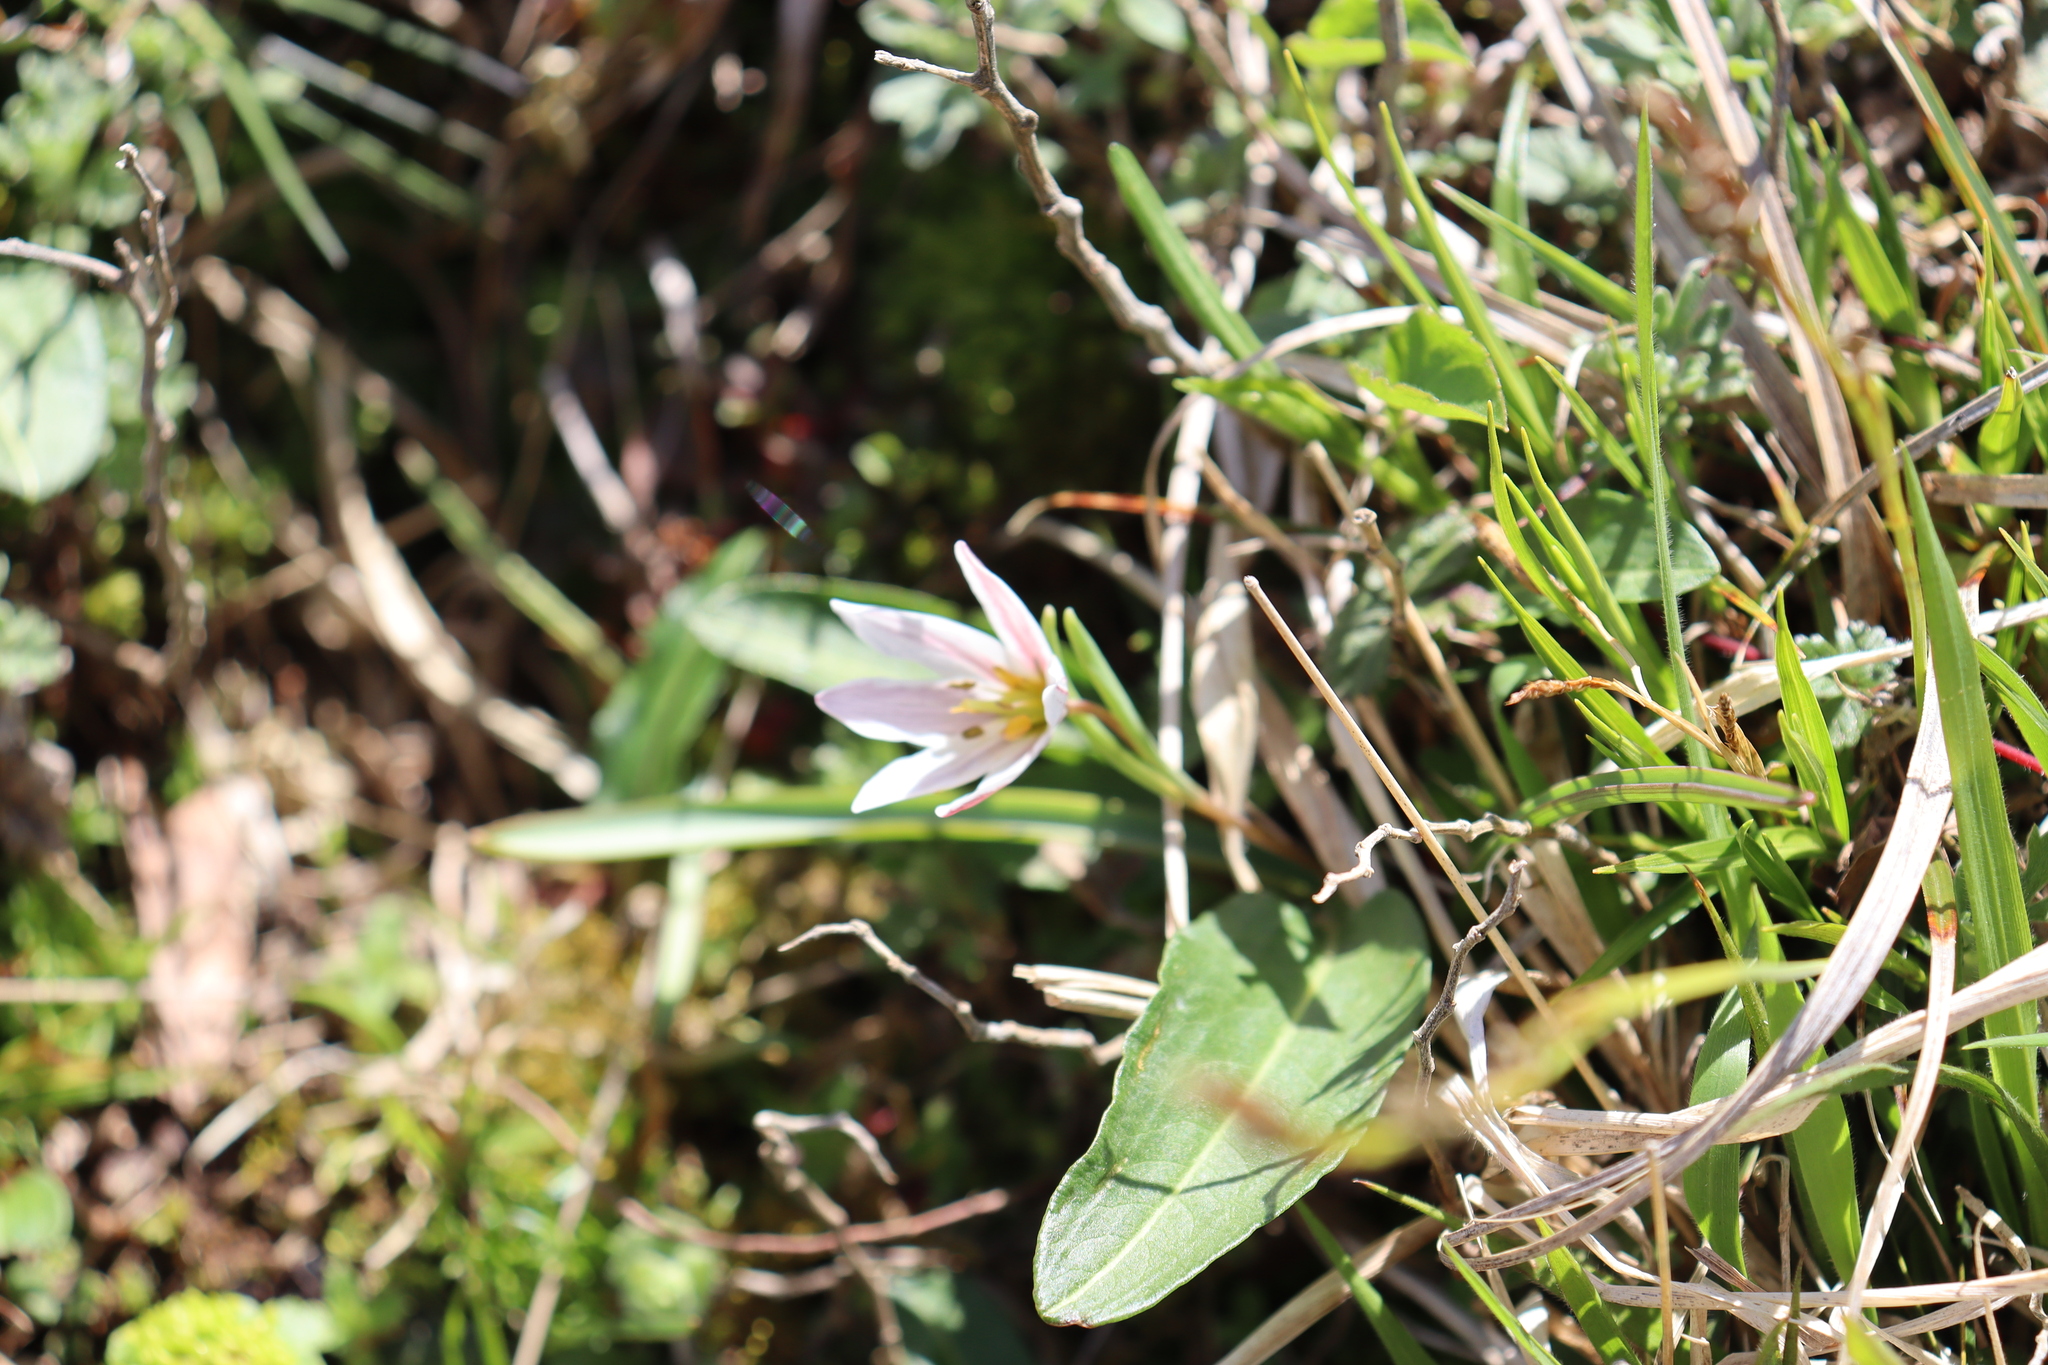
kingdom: Plantae
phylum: Tracheophyta
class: Liliopsida
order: Liliales
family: Liliaceae
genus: Amana
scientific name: Amana edulis
